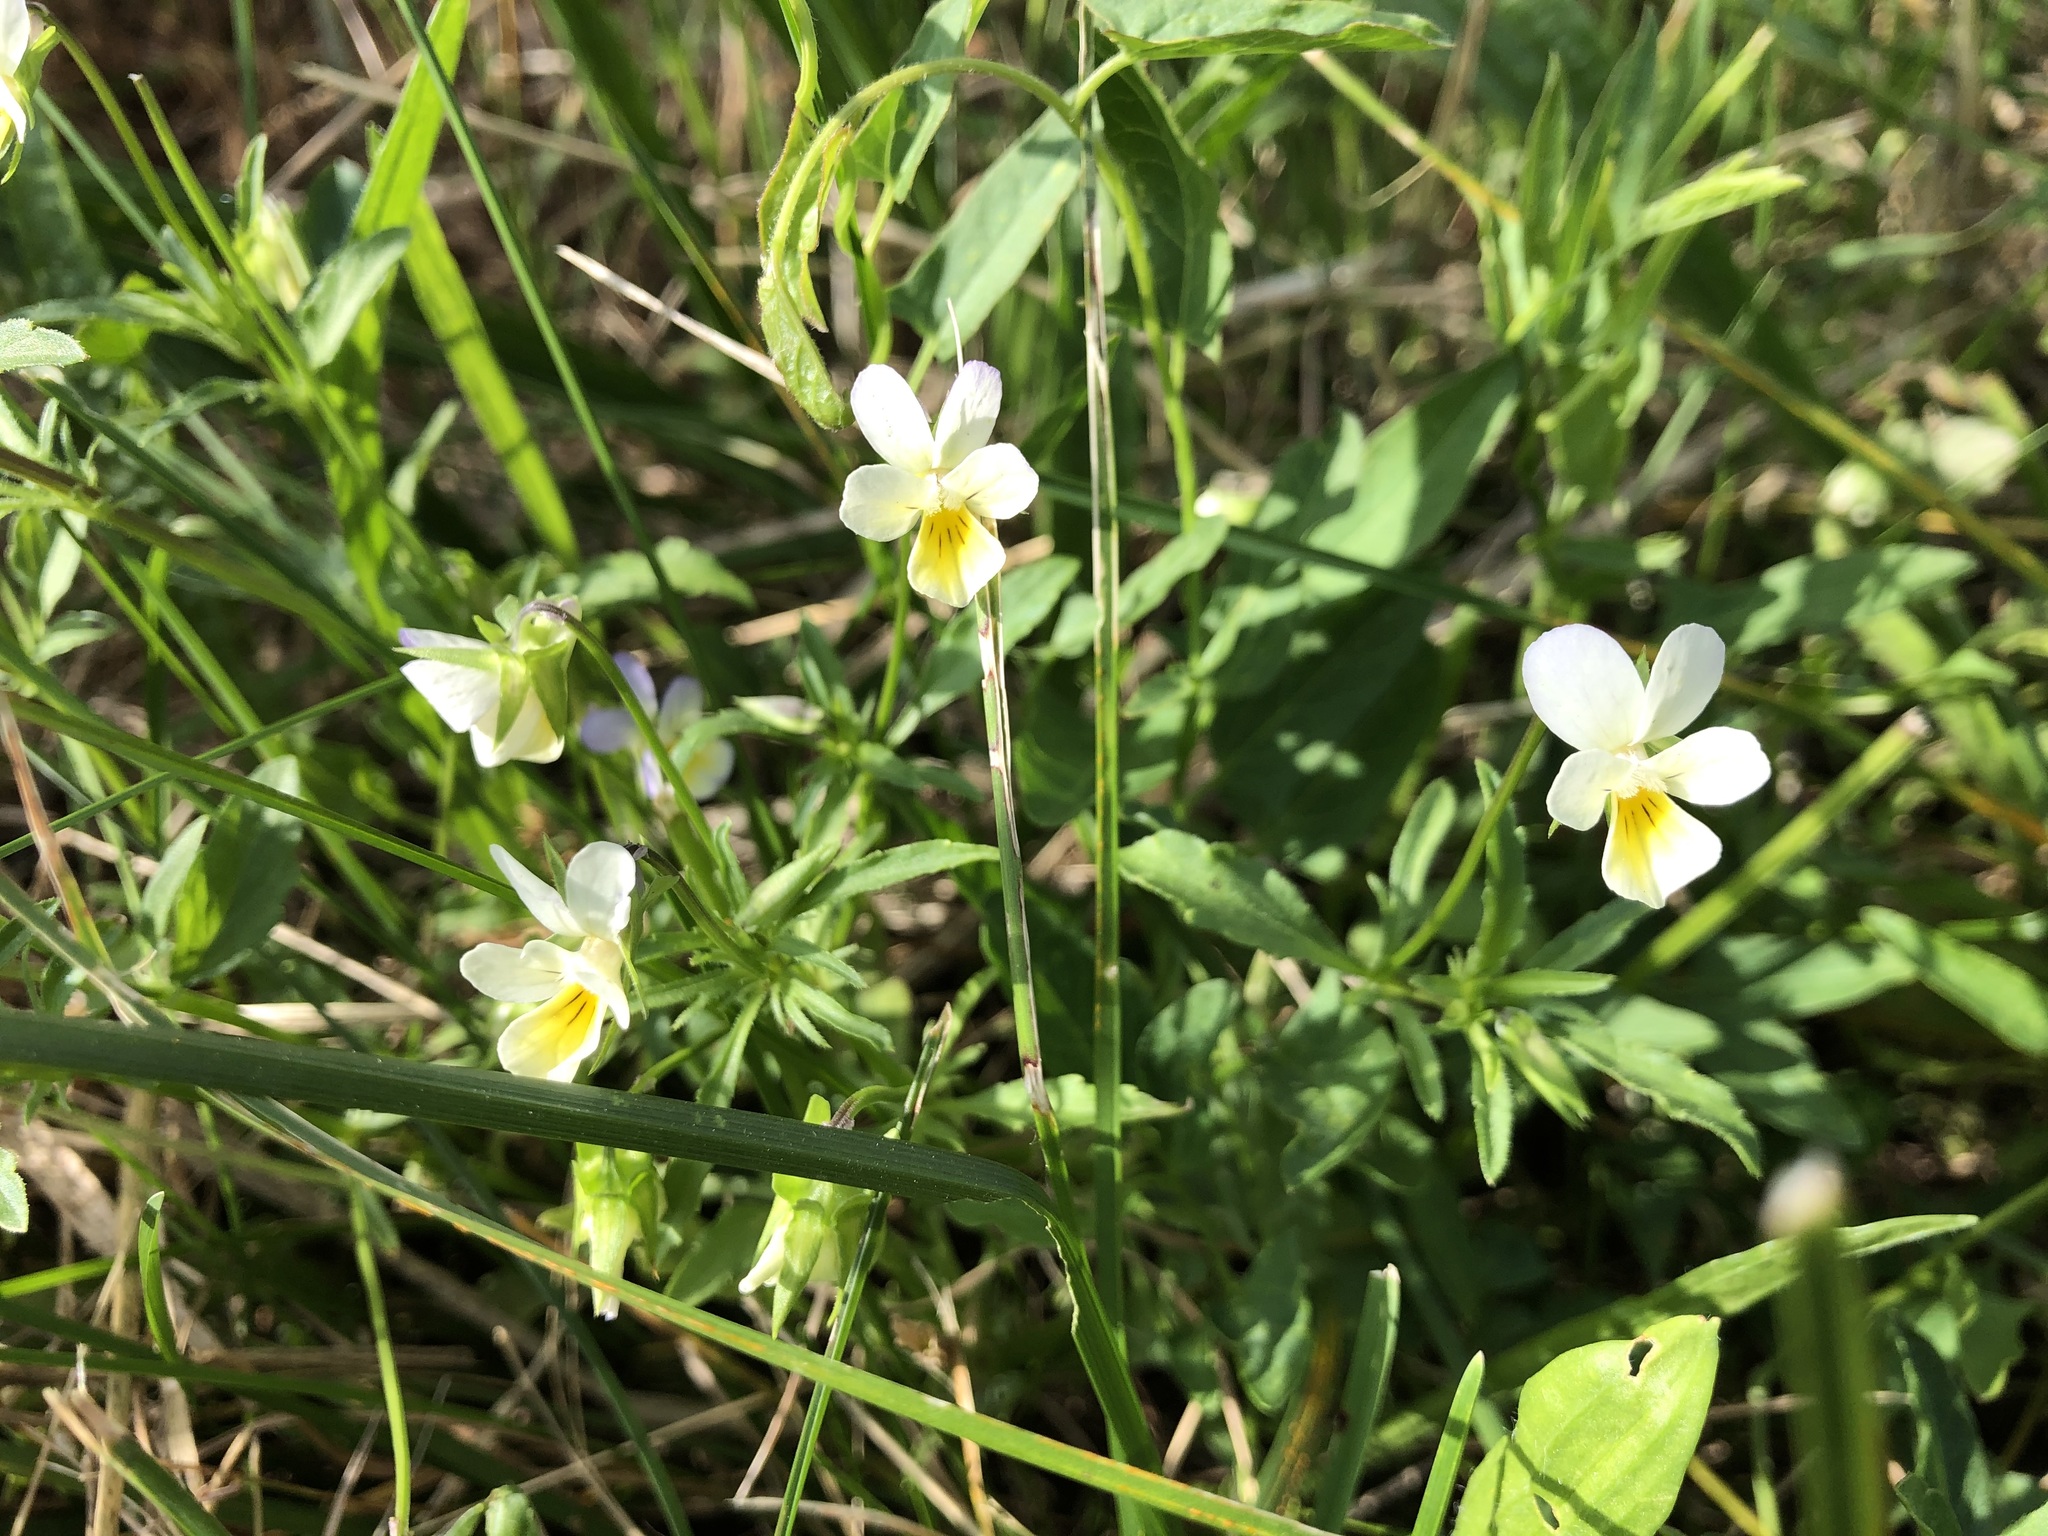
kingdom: Plantae
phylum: Tracheophyta
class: Magnoliopsida
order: Malpighiales
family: Violaceae
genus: Viola
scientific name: Viola arvensis
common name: Field pansy
